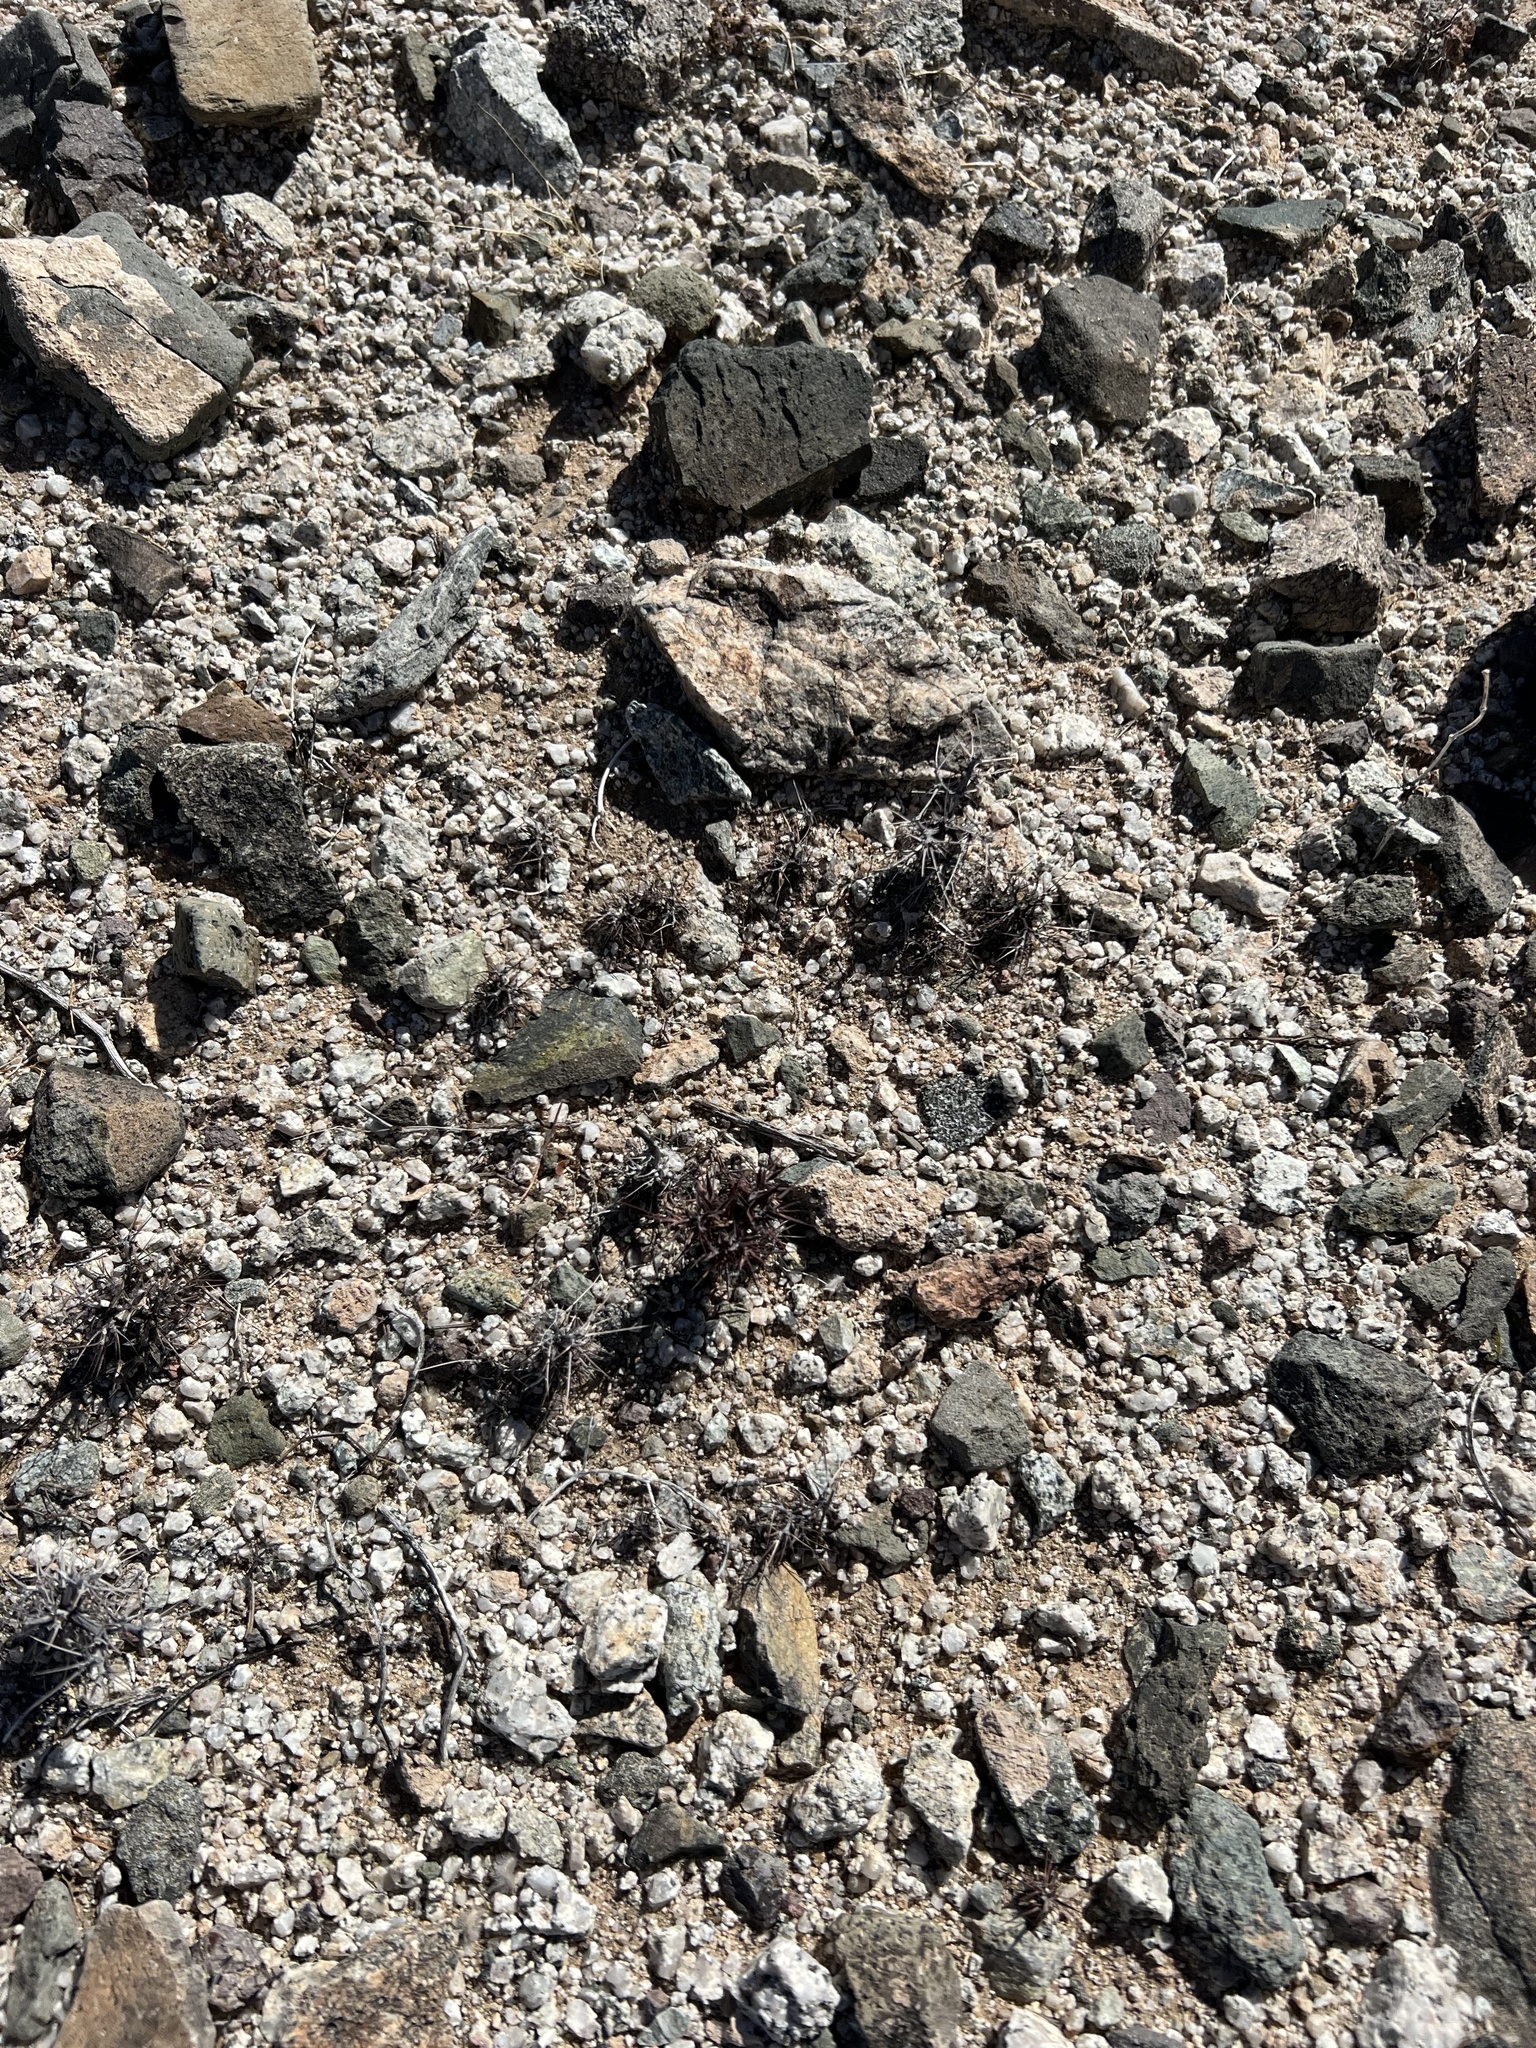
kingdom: Plantae
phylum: Tracheophyta
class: Magnoliopsida
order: Caryophyllales
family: Polygonaceae
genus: Chorizanthe
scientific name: Chorizanthe rigida
